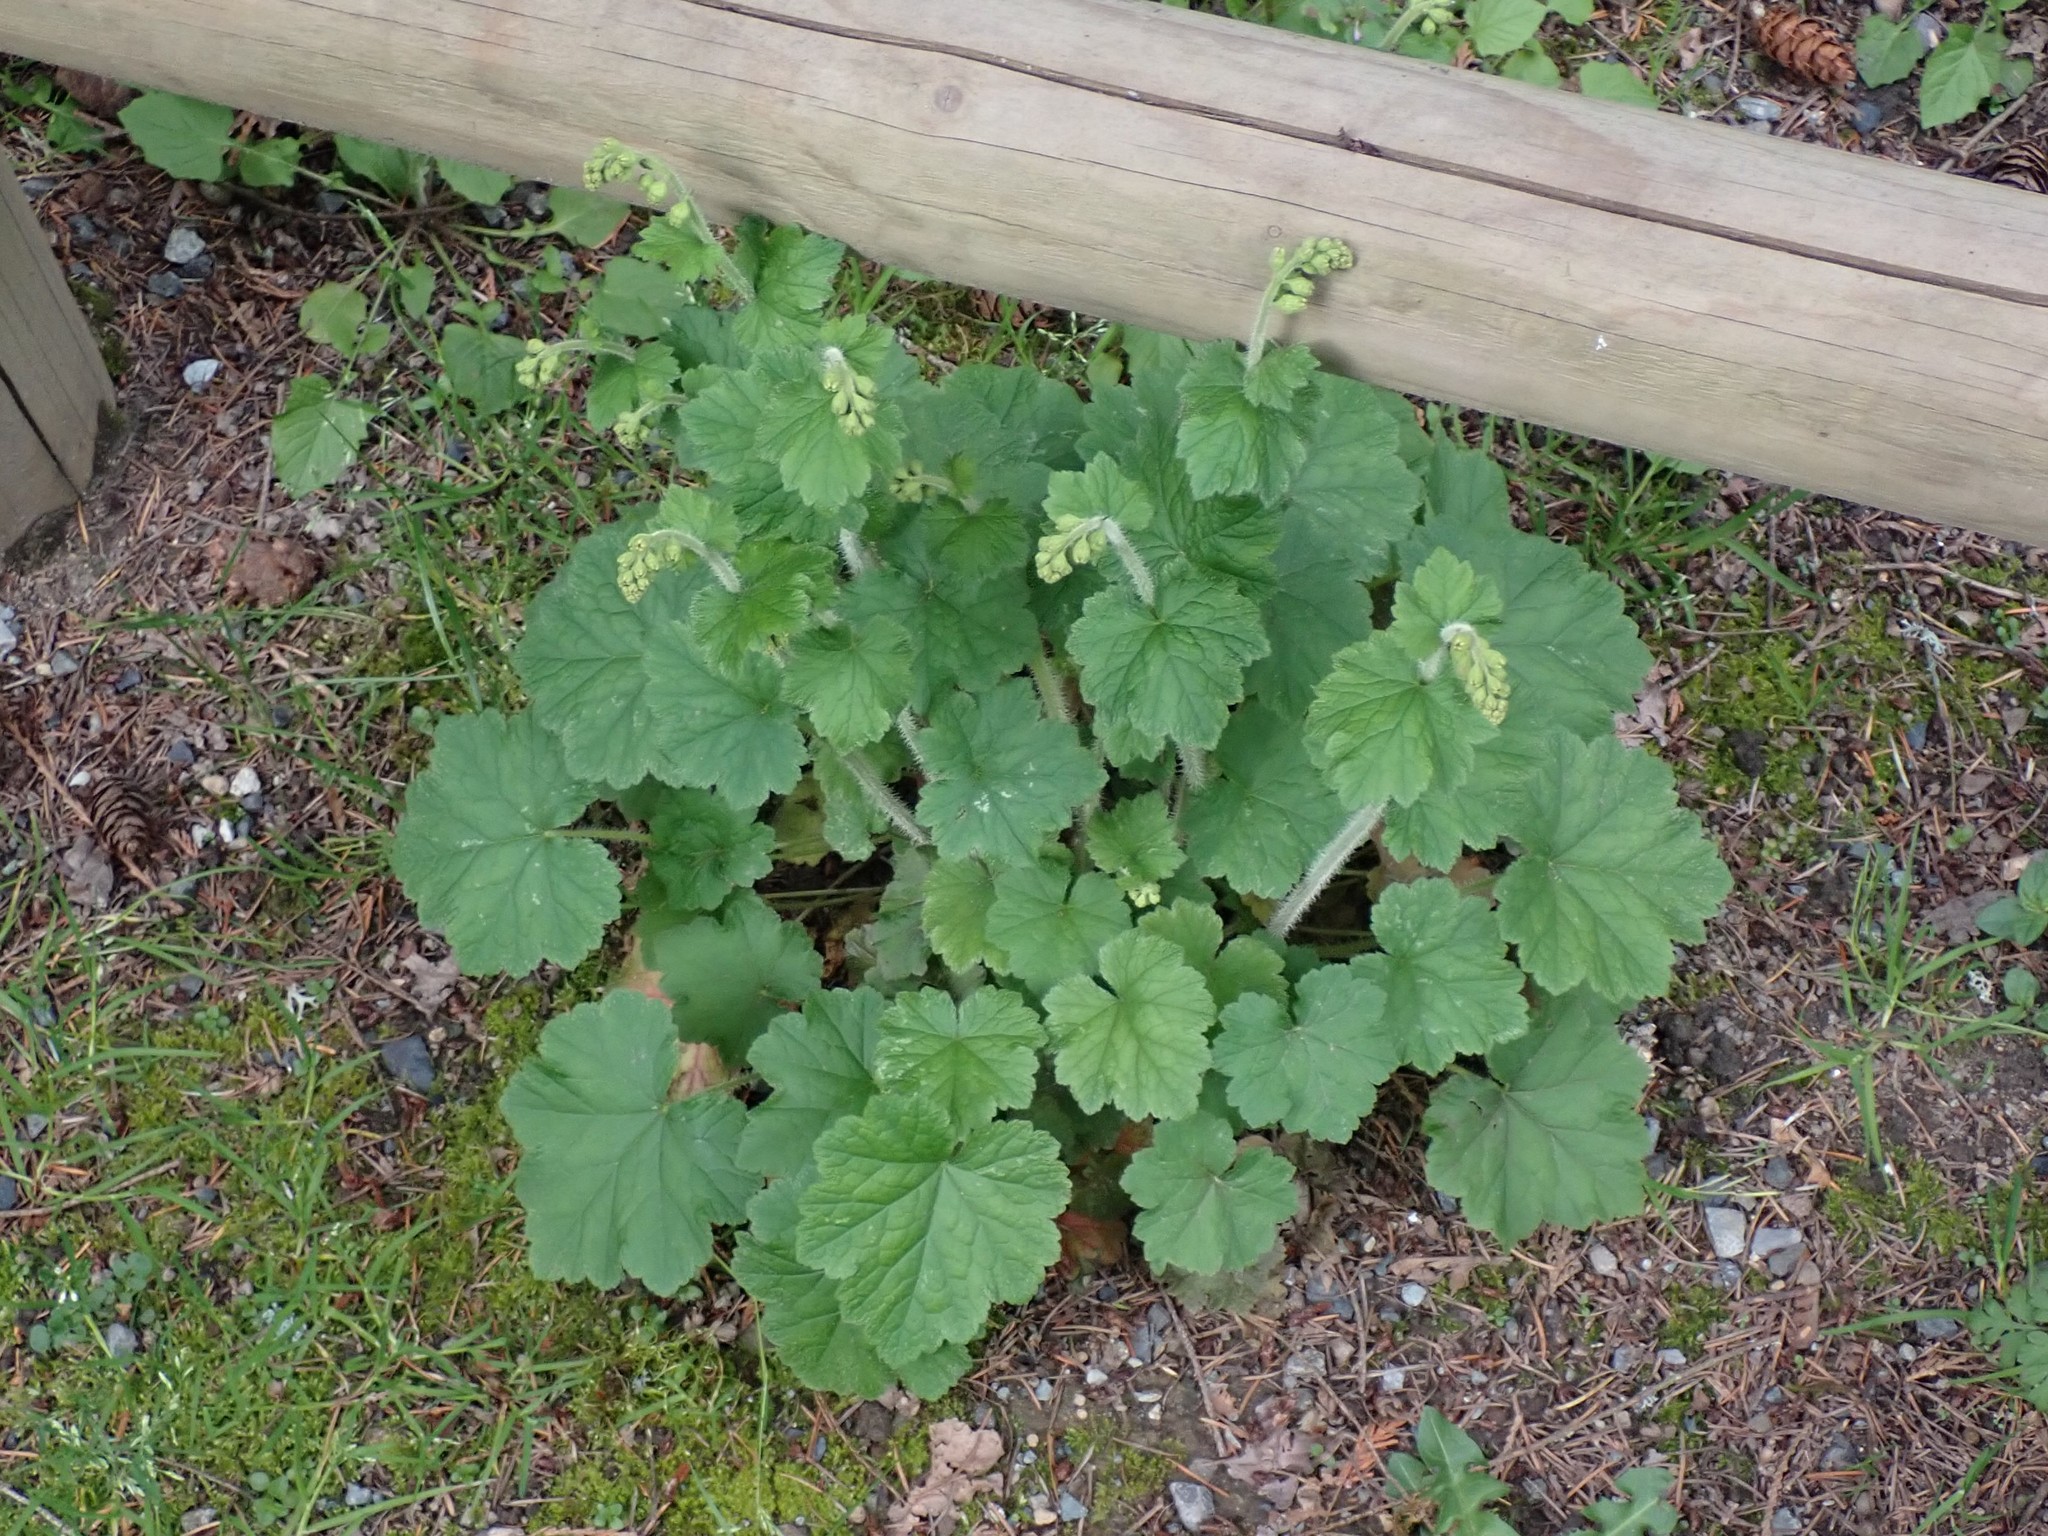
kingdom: Plantae
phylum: Tracheophyta
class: Magnoliopsida
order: Saxifragales
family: Saxifragaceae
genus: Tellima
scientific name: Tellima grandiflora
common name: Fringecups
